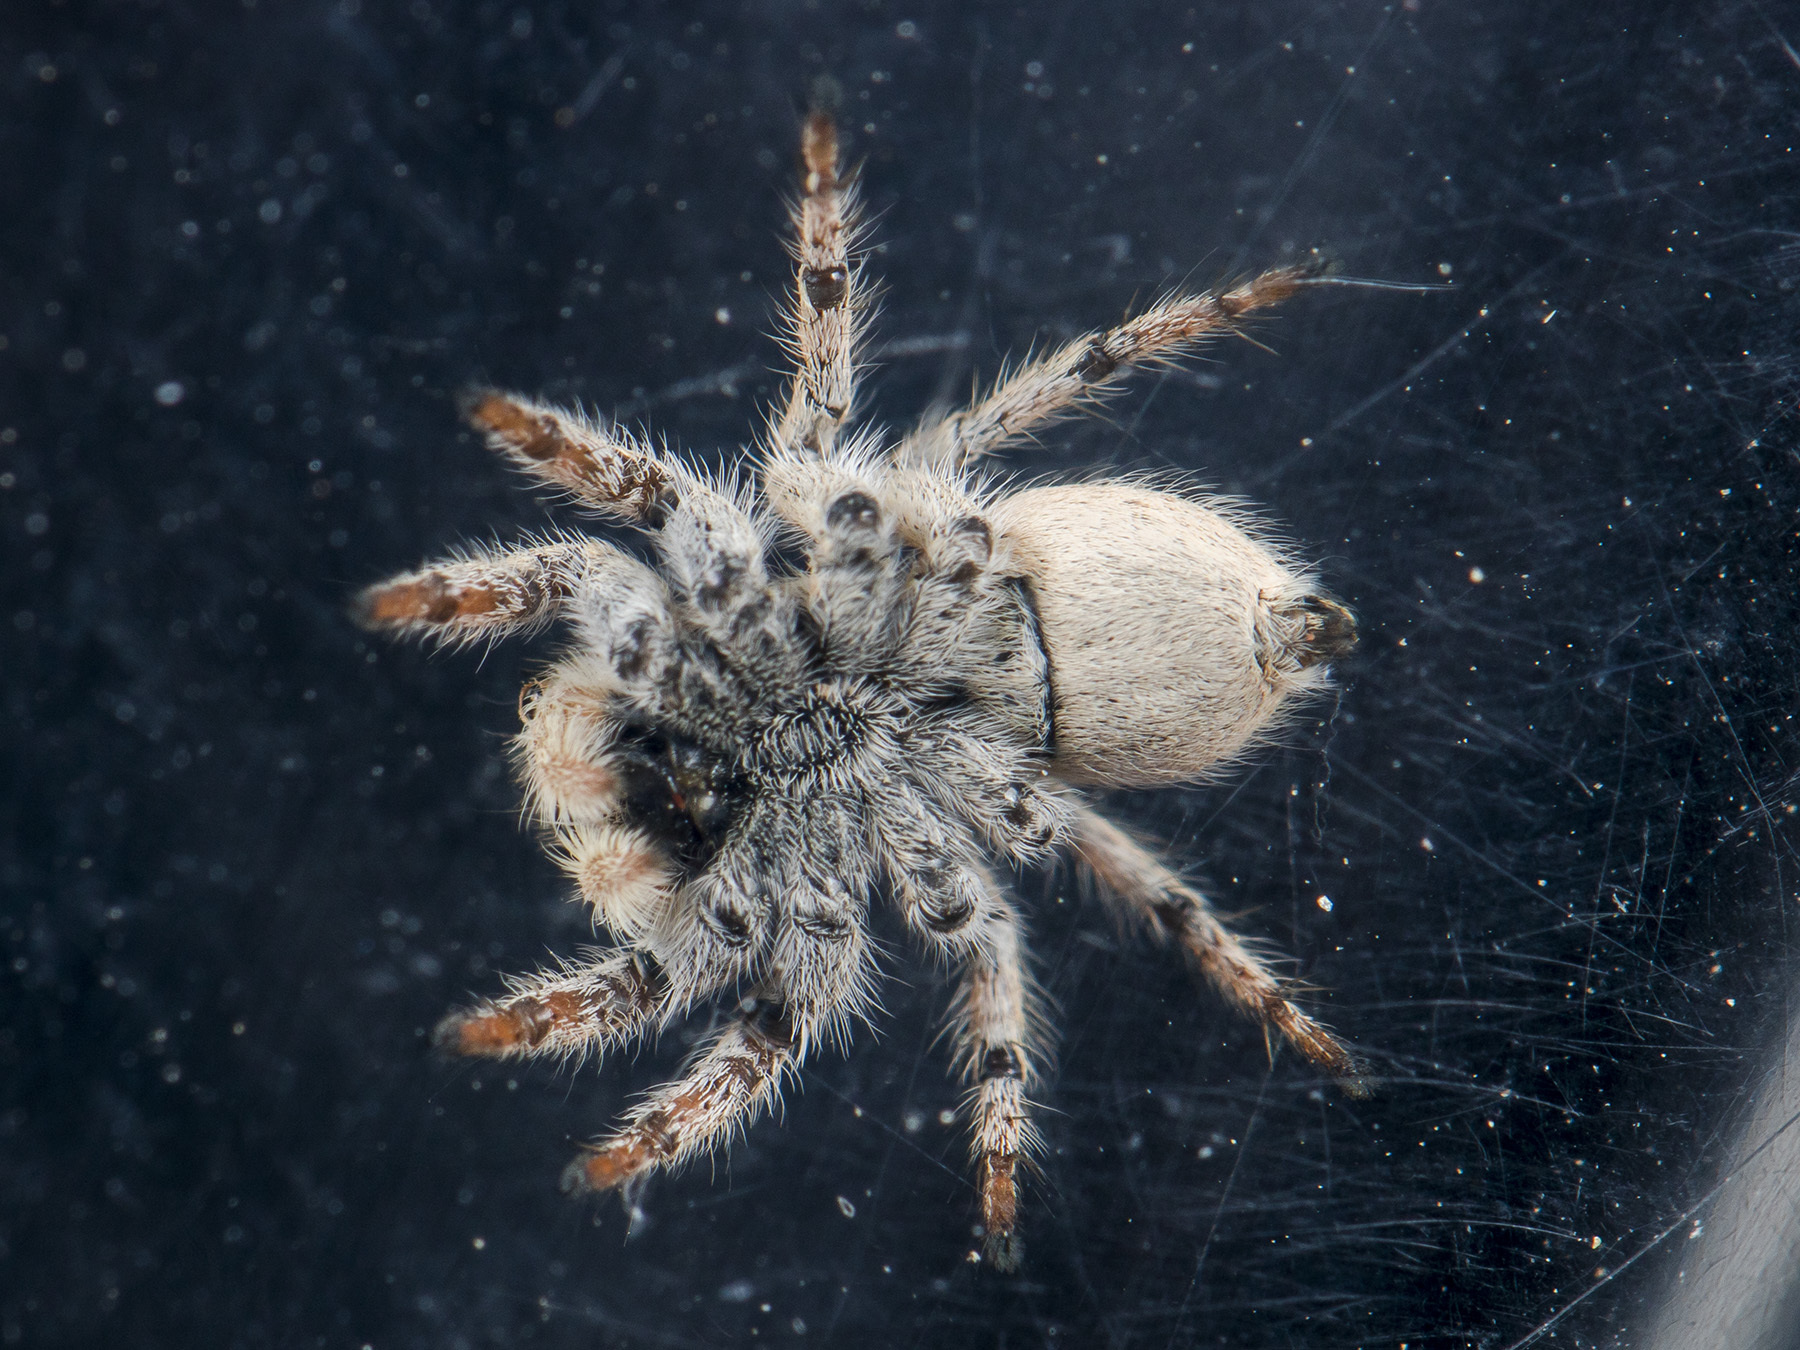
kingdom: Animalia
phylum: Arthropoda
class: Arachnida
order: Araneae
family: Salticidae
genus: Aelurillus
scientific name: Aelurillus concolor
